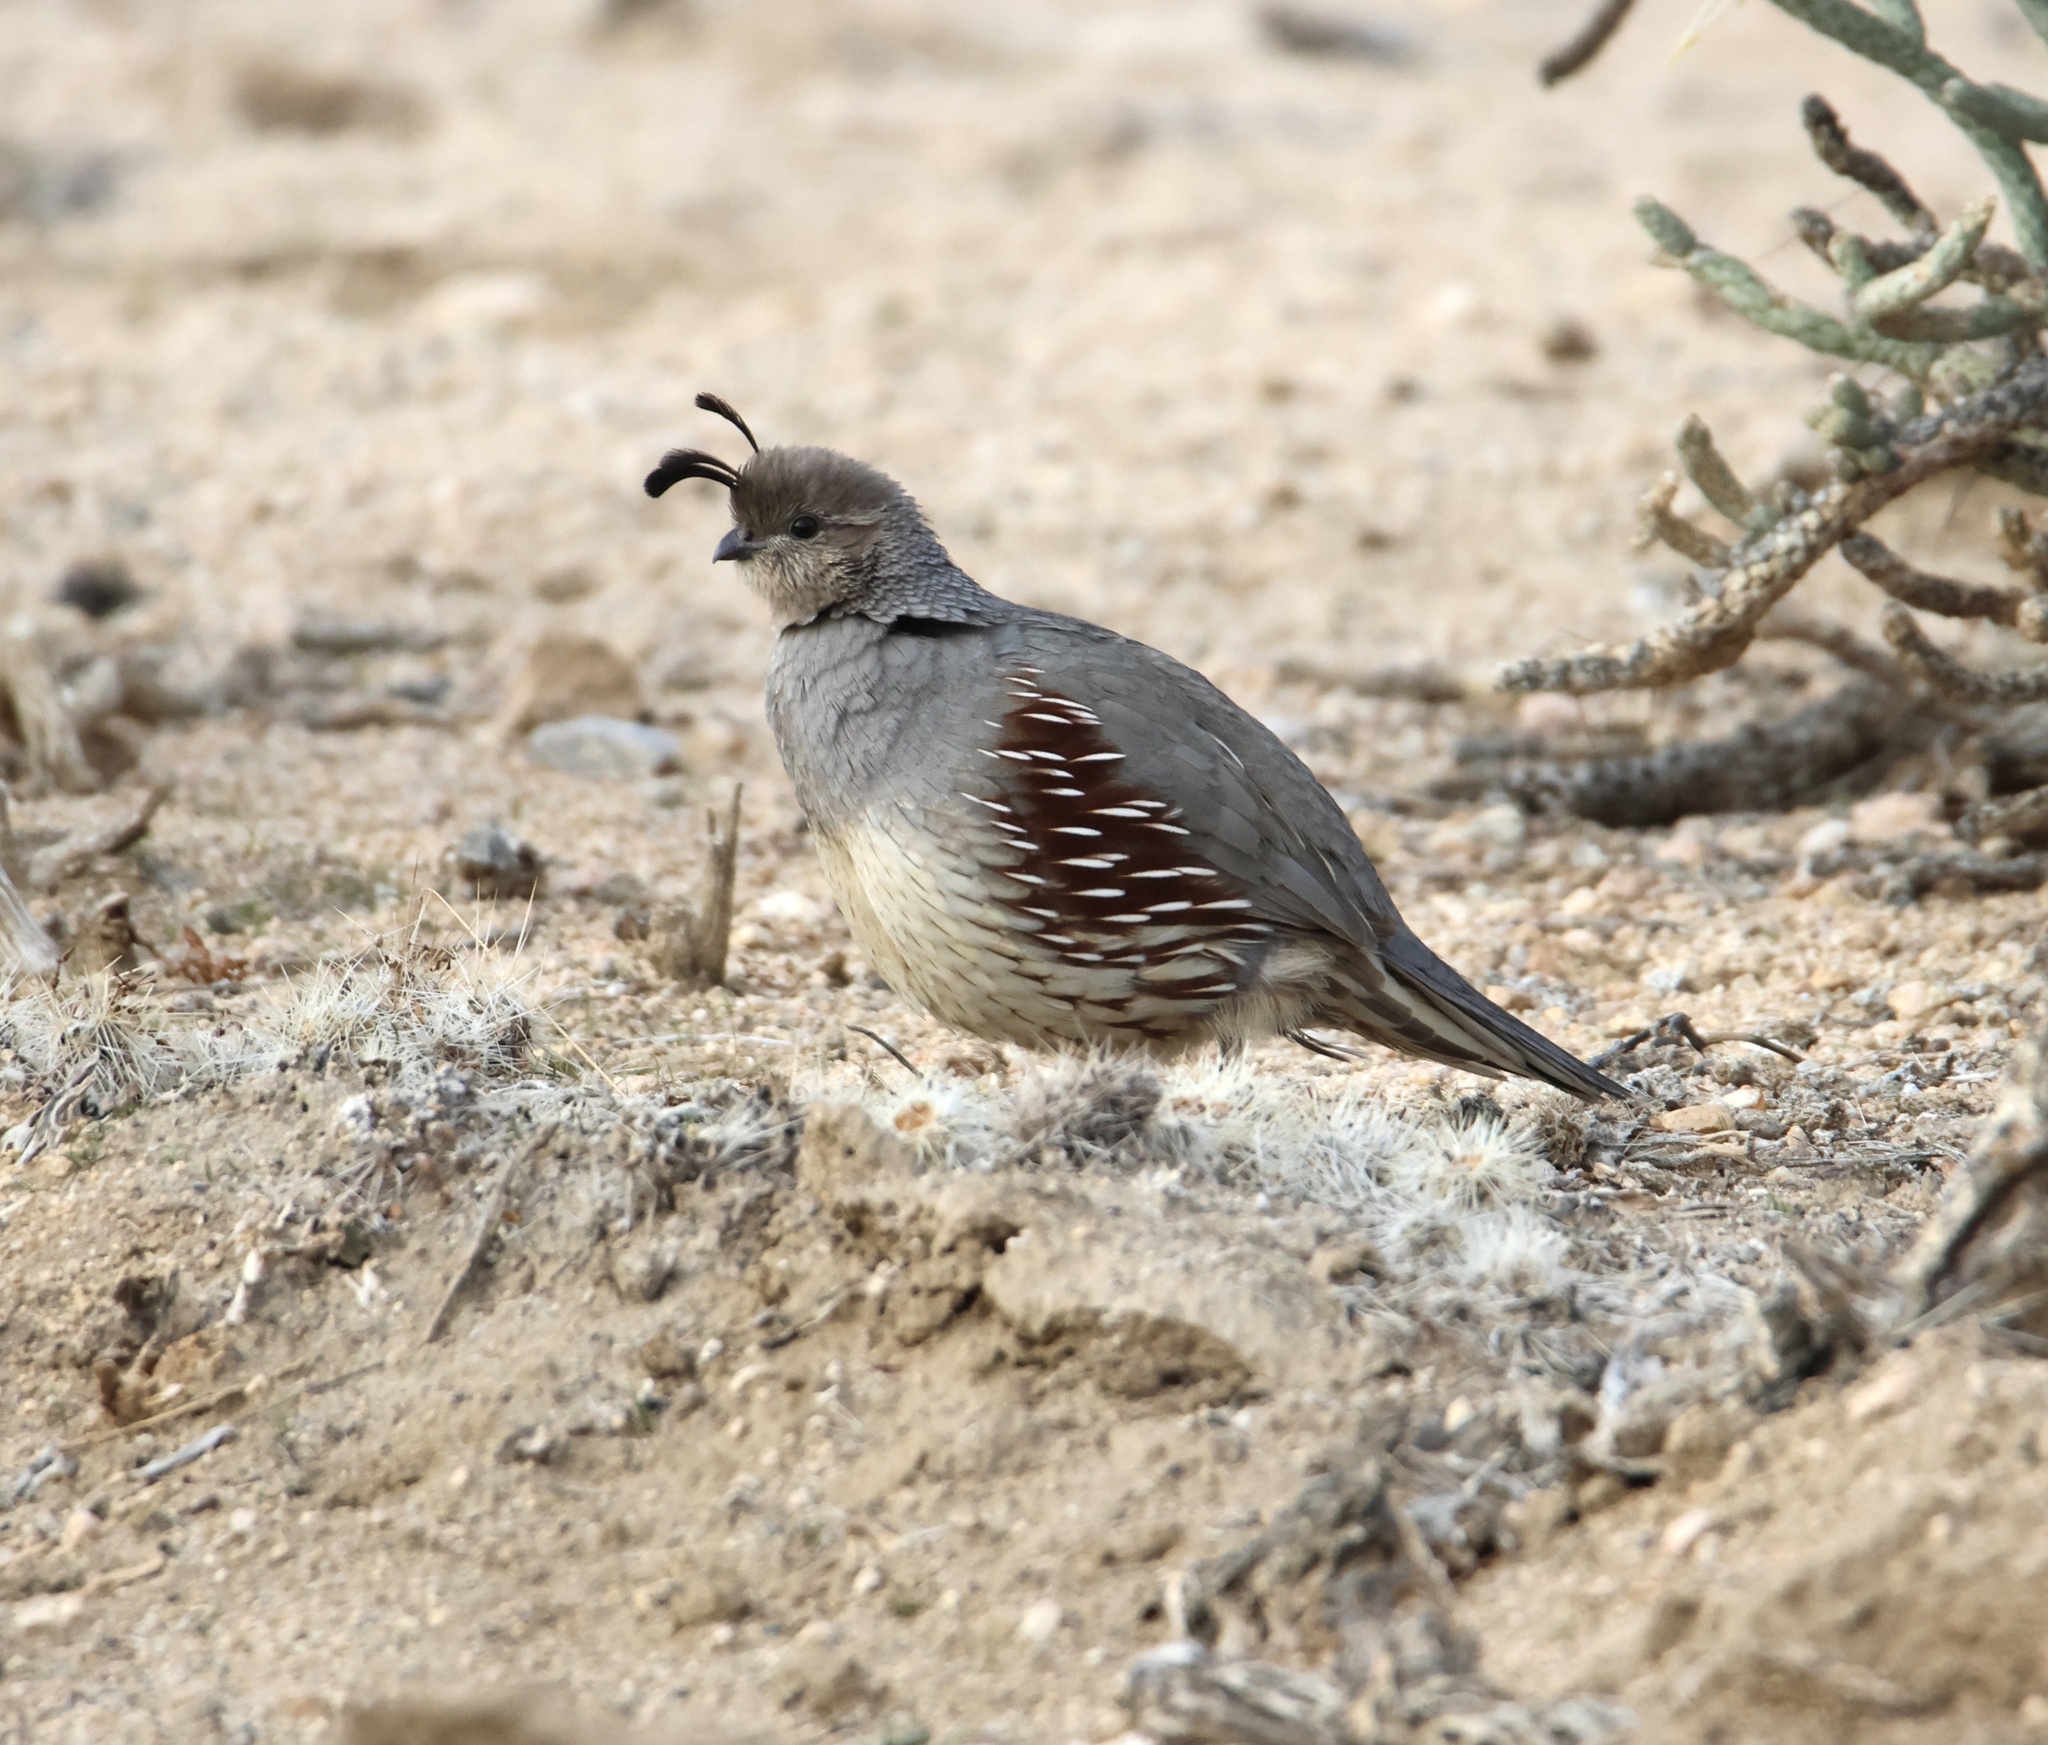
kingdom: Animalia
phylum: Chordata
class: Aves
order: Galliformes
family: Odontophoridae
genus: Callipepla
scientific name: Callipepla gambelii
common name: Gambel's quail
